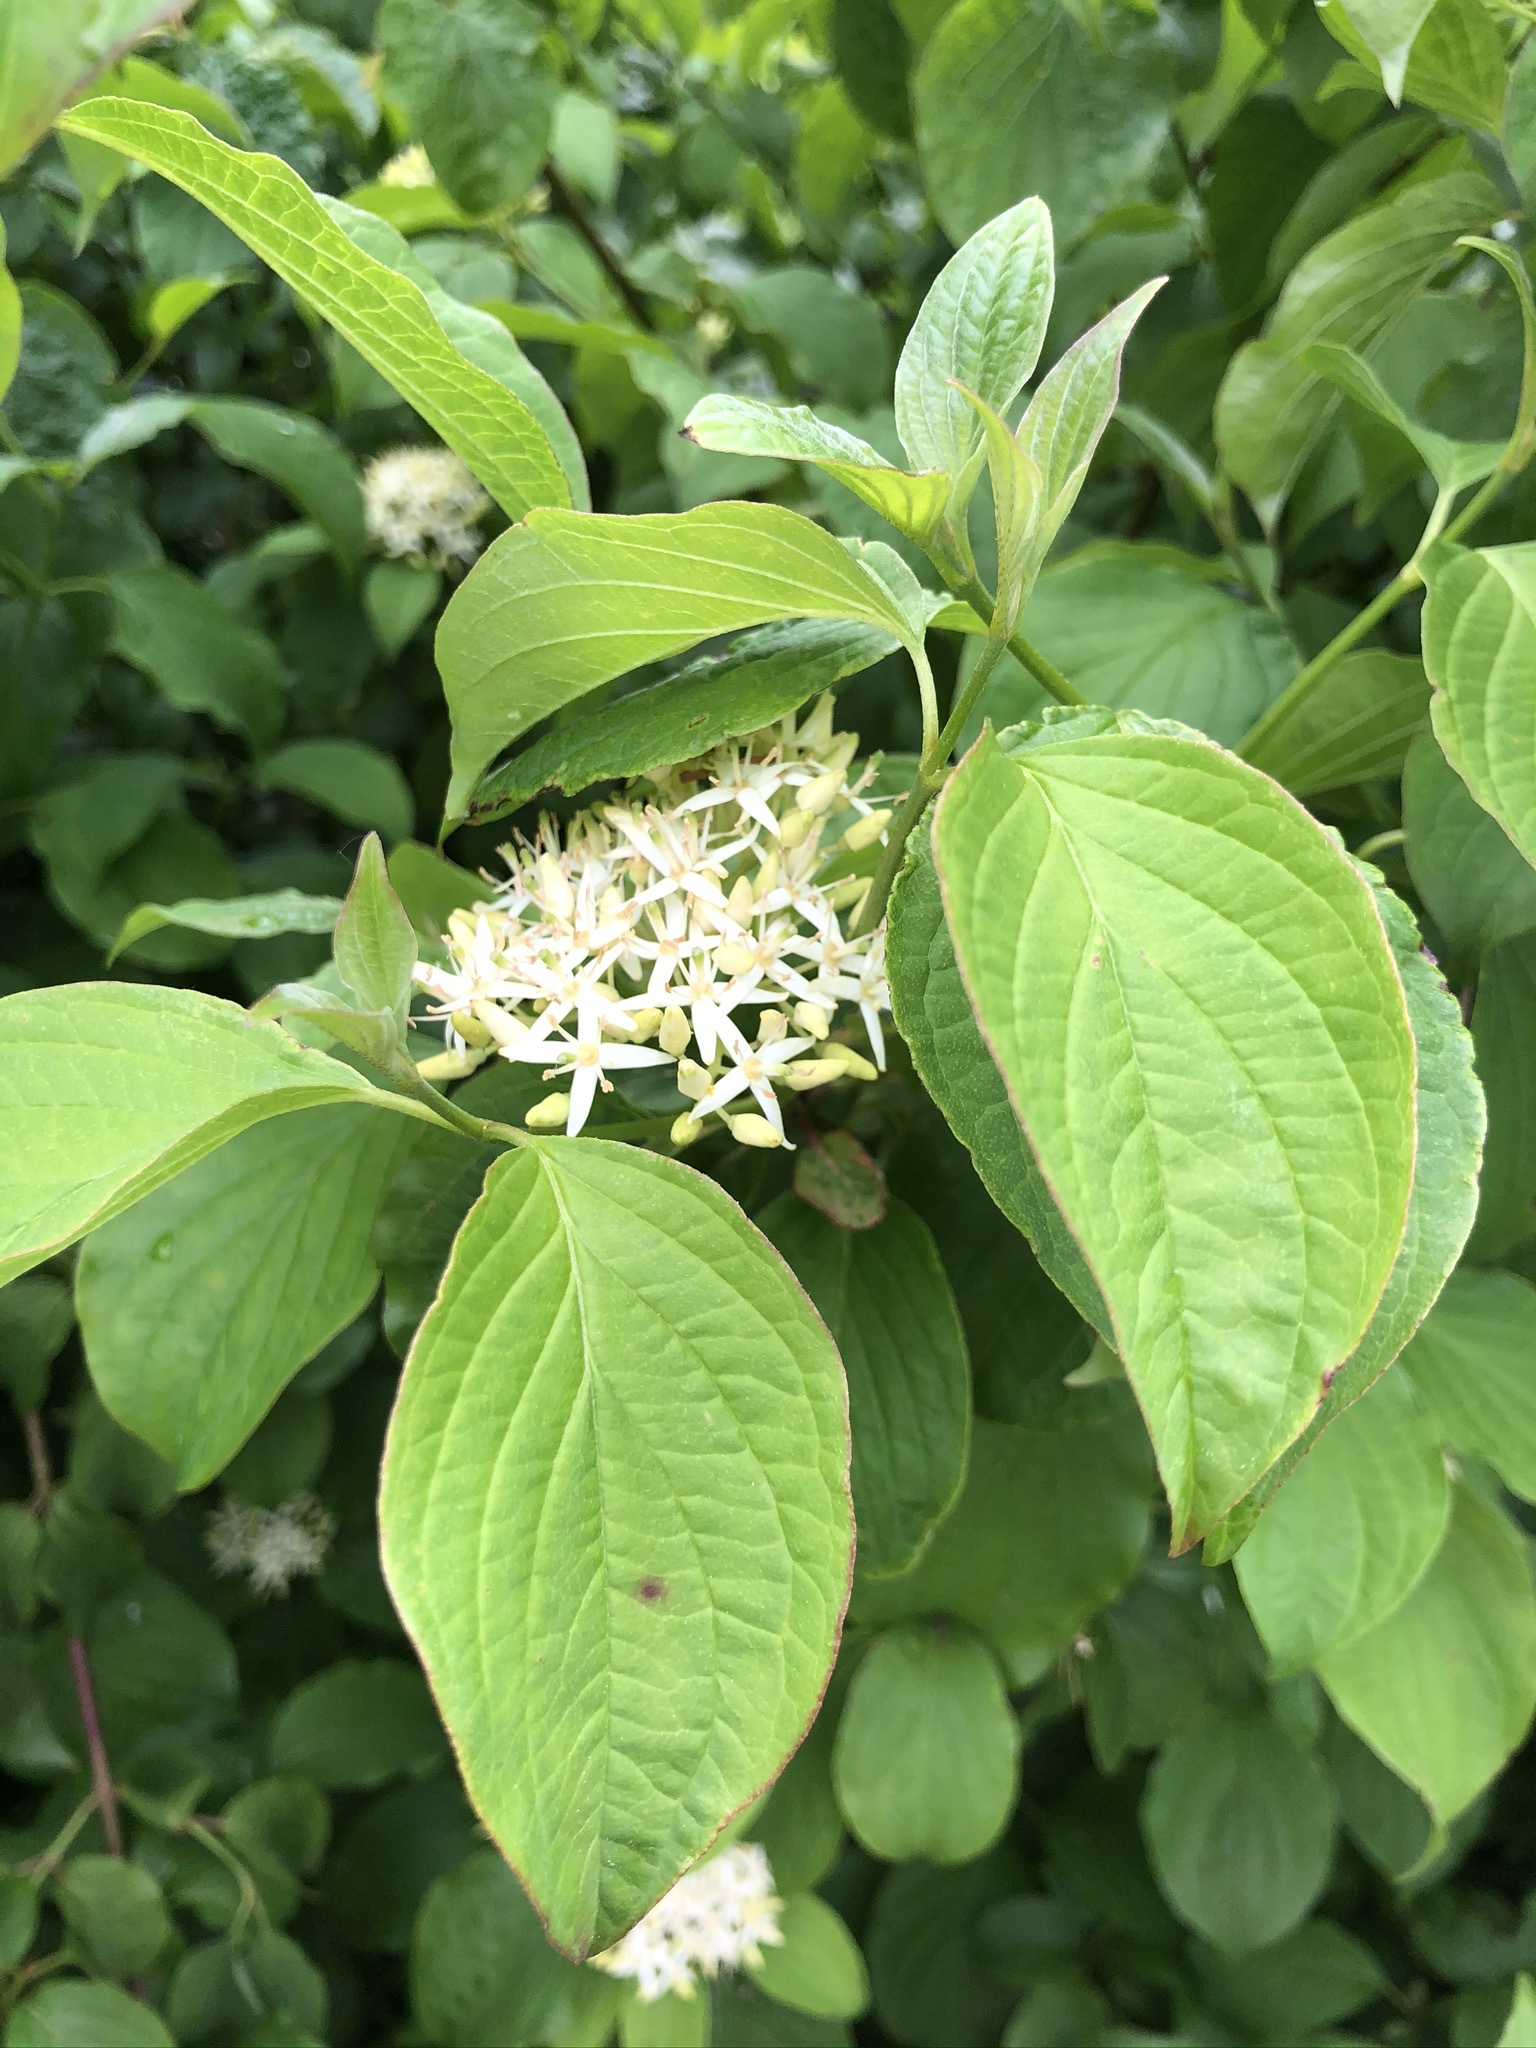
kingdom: Plantae
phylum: Tracheophyta
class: Magnoliopsida
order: Cornales
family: Cornaceae
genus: Cornus
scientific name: Cornus sanguinea
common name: Dogwood
